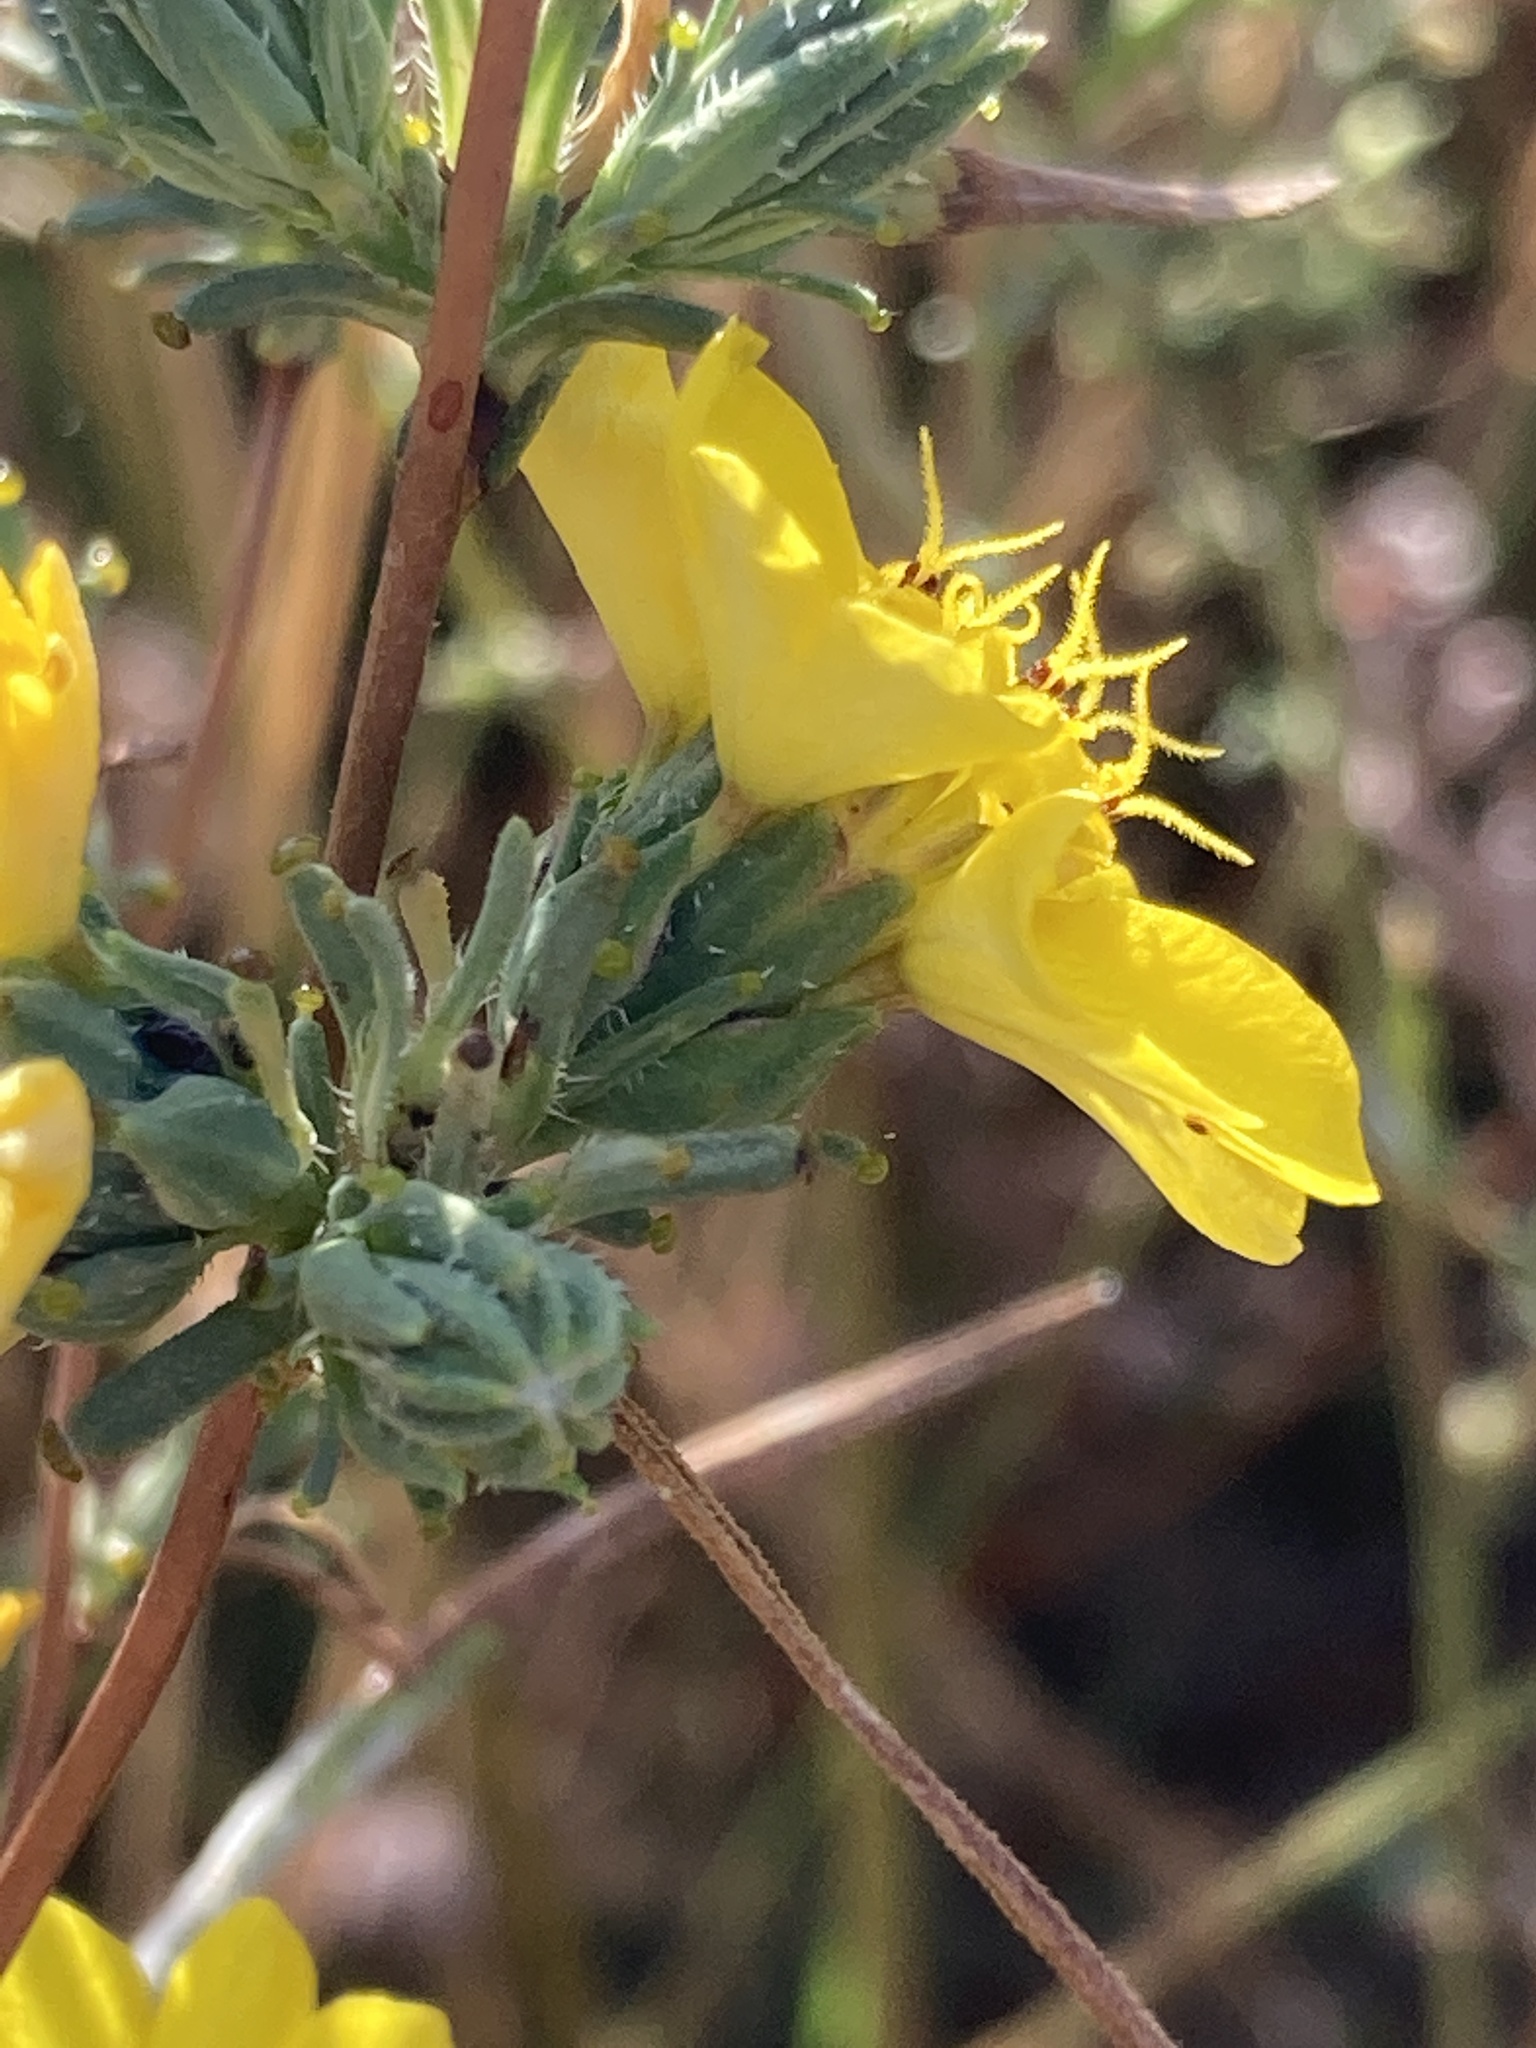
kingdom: Plantae
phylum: Tracheophyta
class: Magnoliopsida
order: Asterales
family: Asteraceae
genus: Calycadenia
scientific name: Calycadenia truncata
